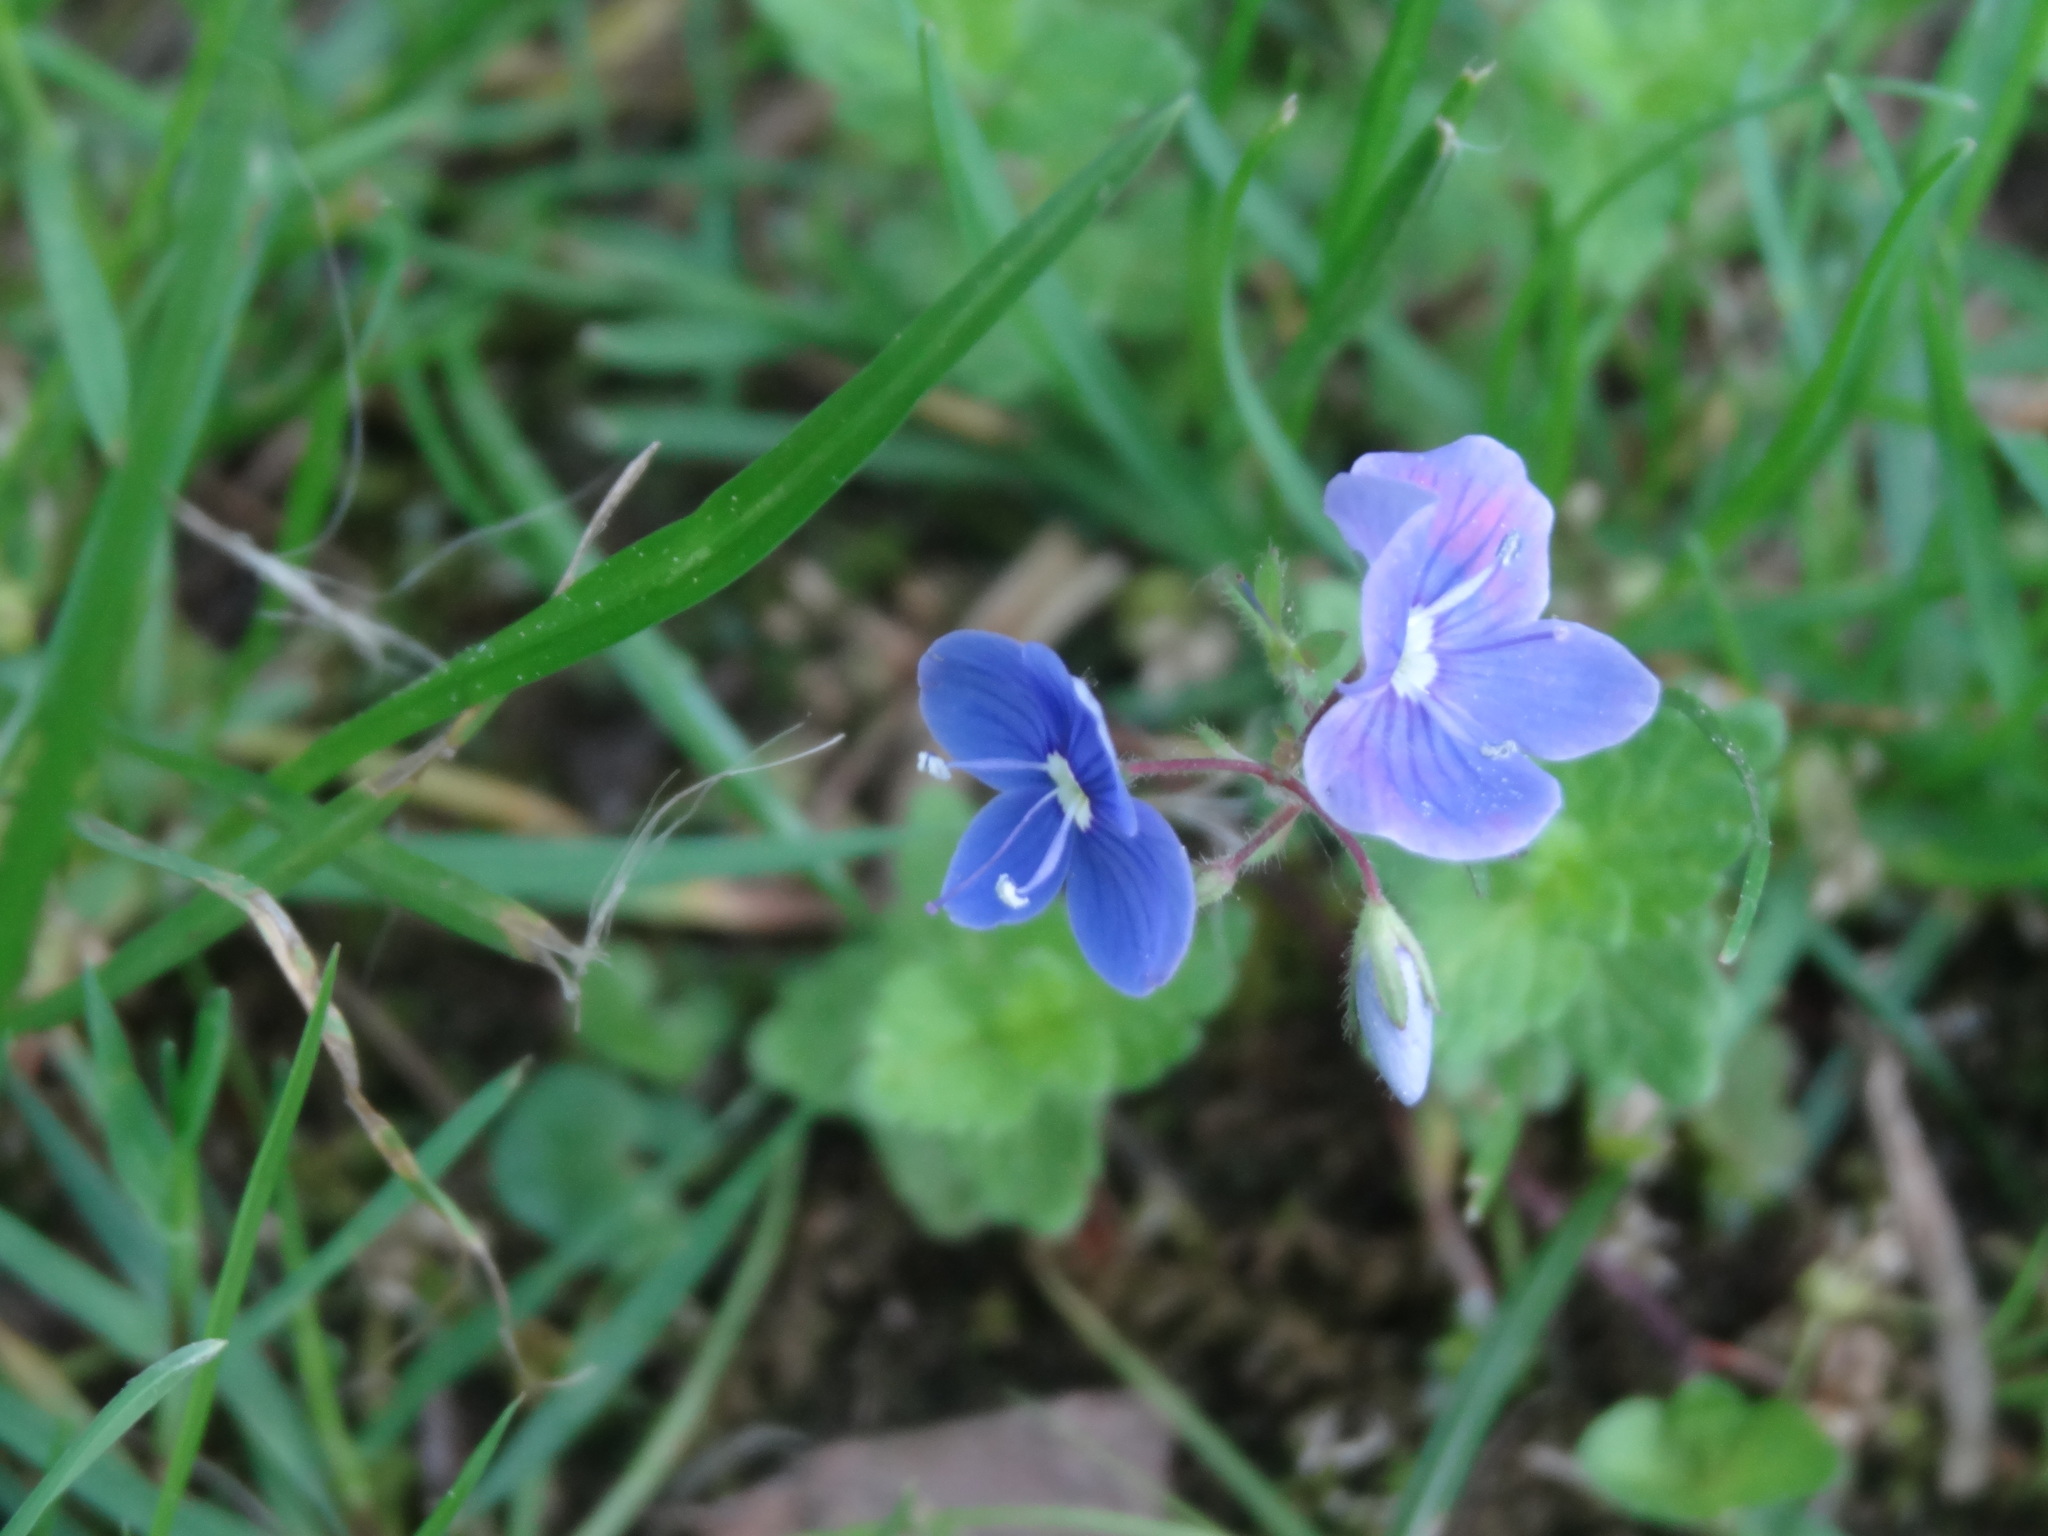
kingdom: Plantae
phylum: Tracheophyta
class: Magnoliopsida
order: Lamiales
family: Plantaginaceae
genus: Veronica
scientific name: Veronica chamaedrys
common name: Germander speedwell
